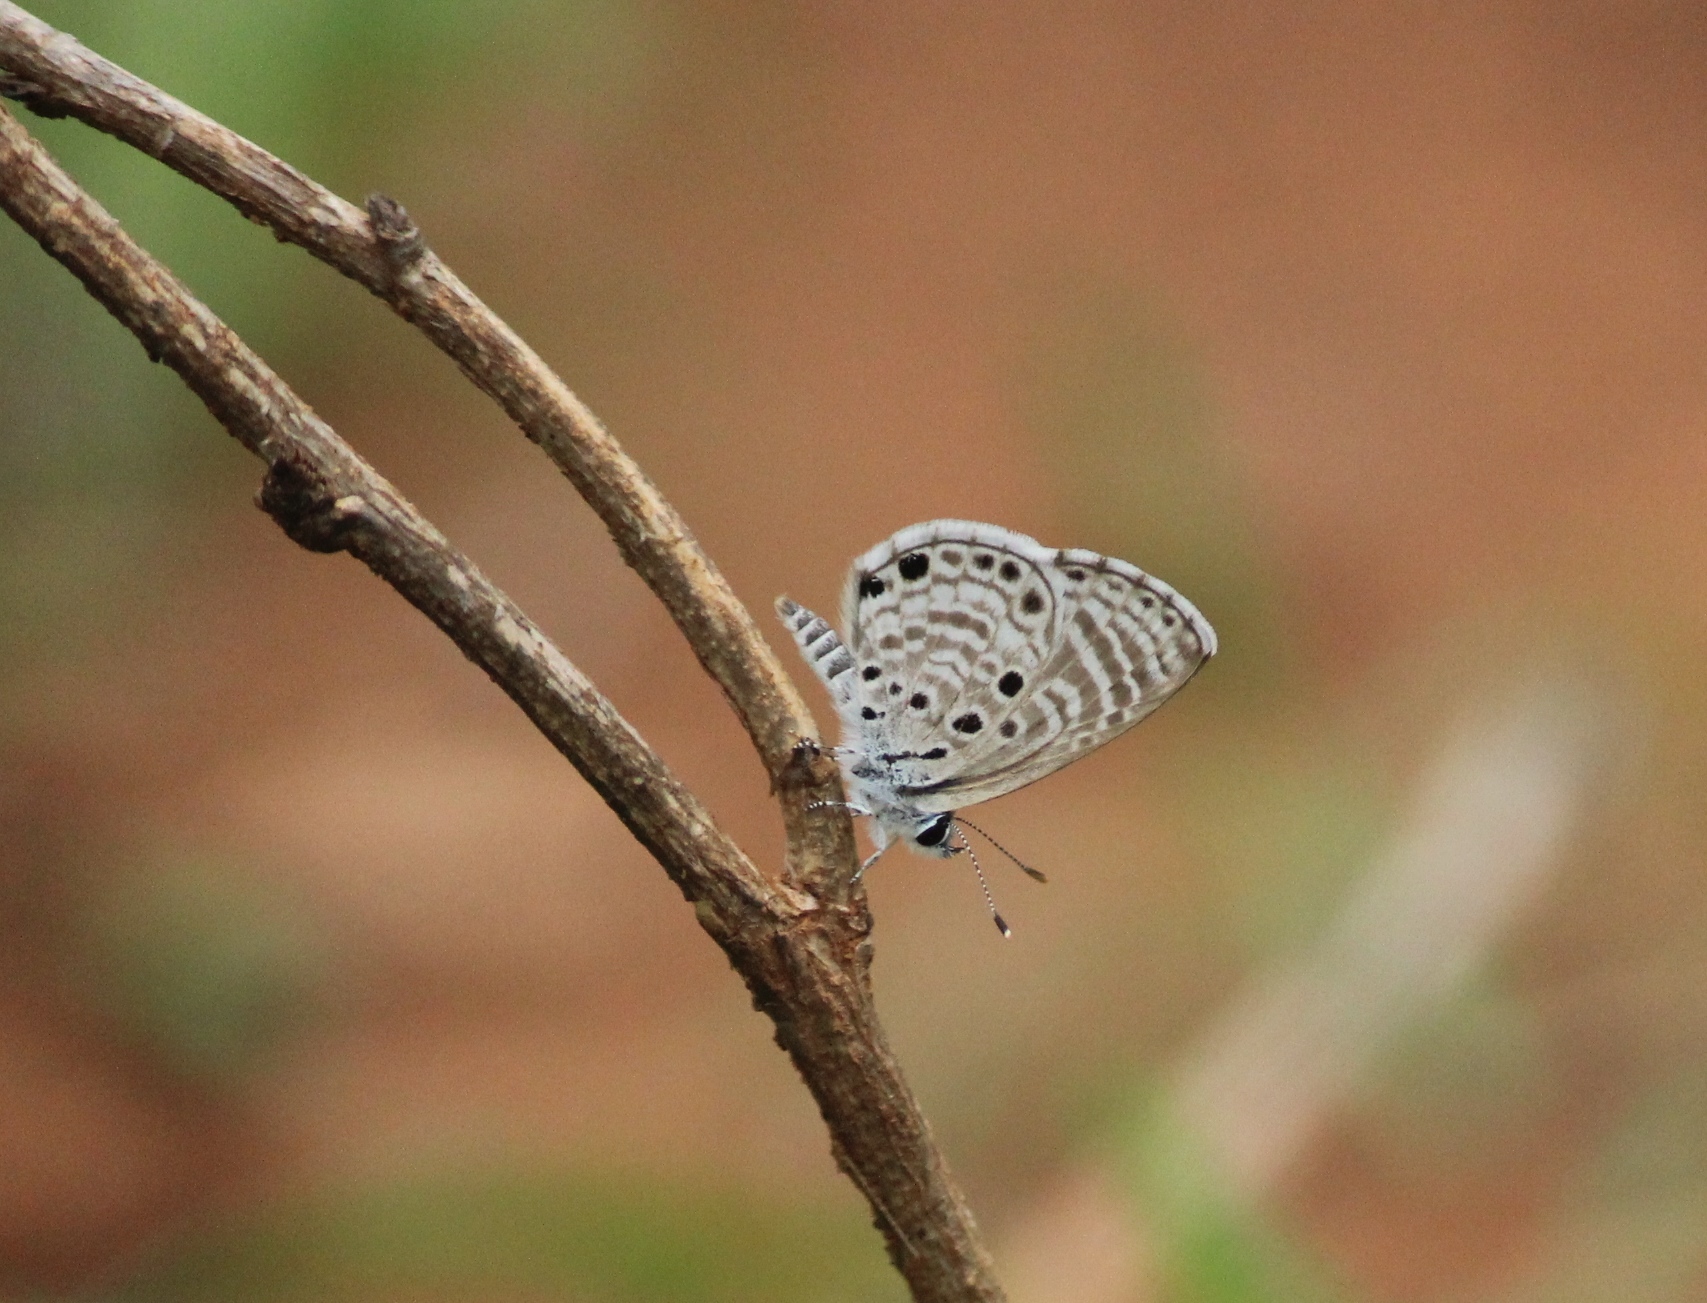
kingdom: Animalia
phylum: Arthropoda
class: Insecta
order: Lepidoptera
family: Lycaenidae
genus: Azanus
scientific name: Azanus jesous
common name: African babul blue
